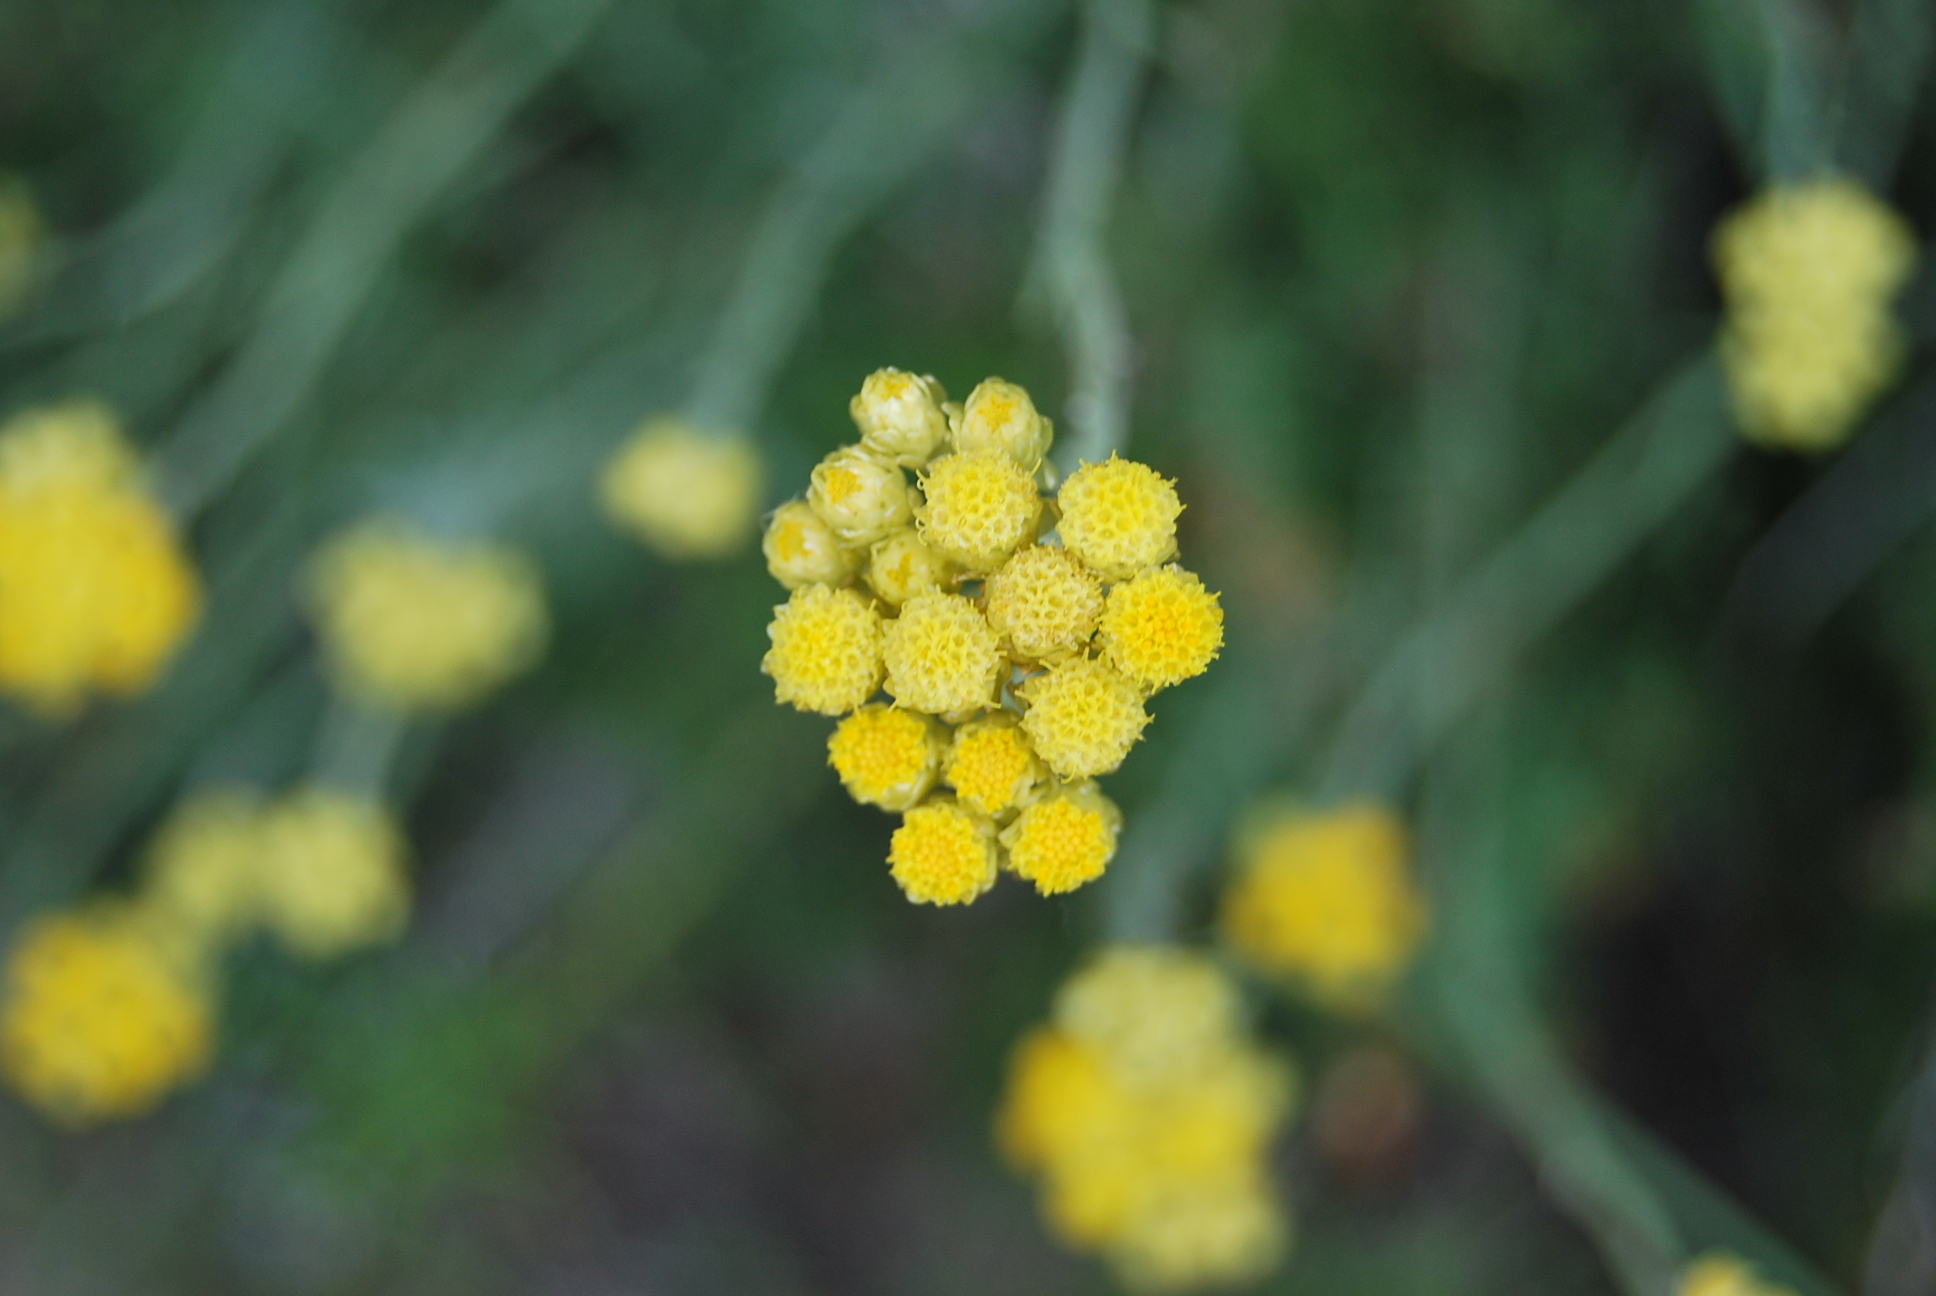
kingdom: Plantae
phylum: Tracheophyta
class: Magnoliopsida
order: Asterales
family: Asteraceae
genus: Helichrysum
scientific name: Helichrysum stoechas
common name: Goldilocks
